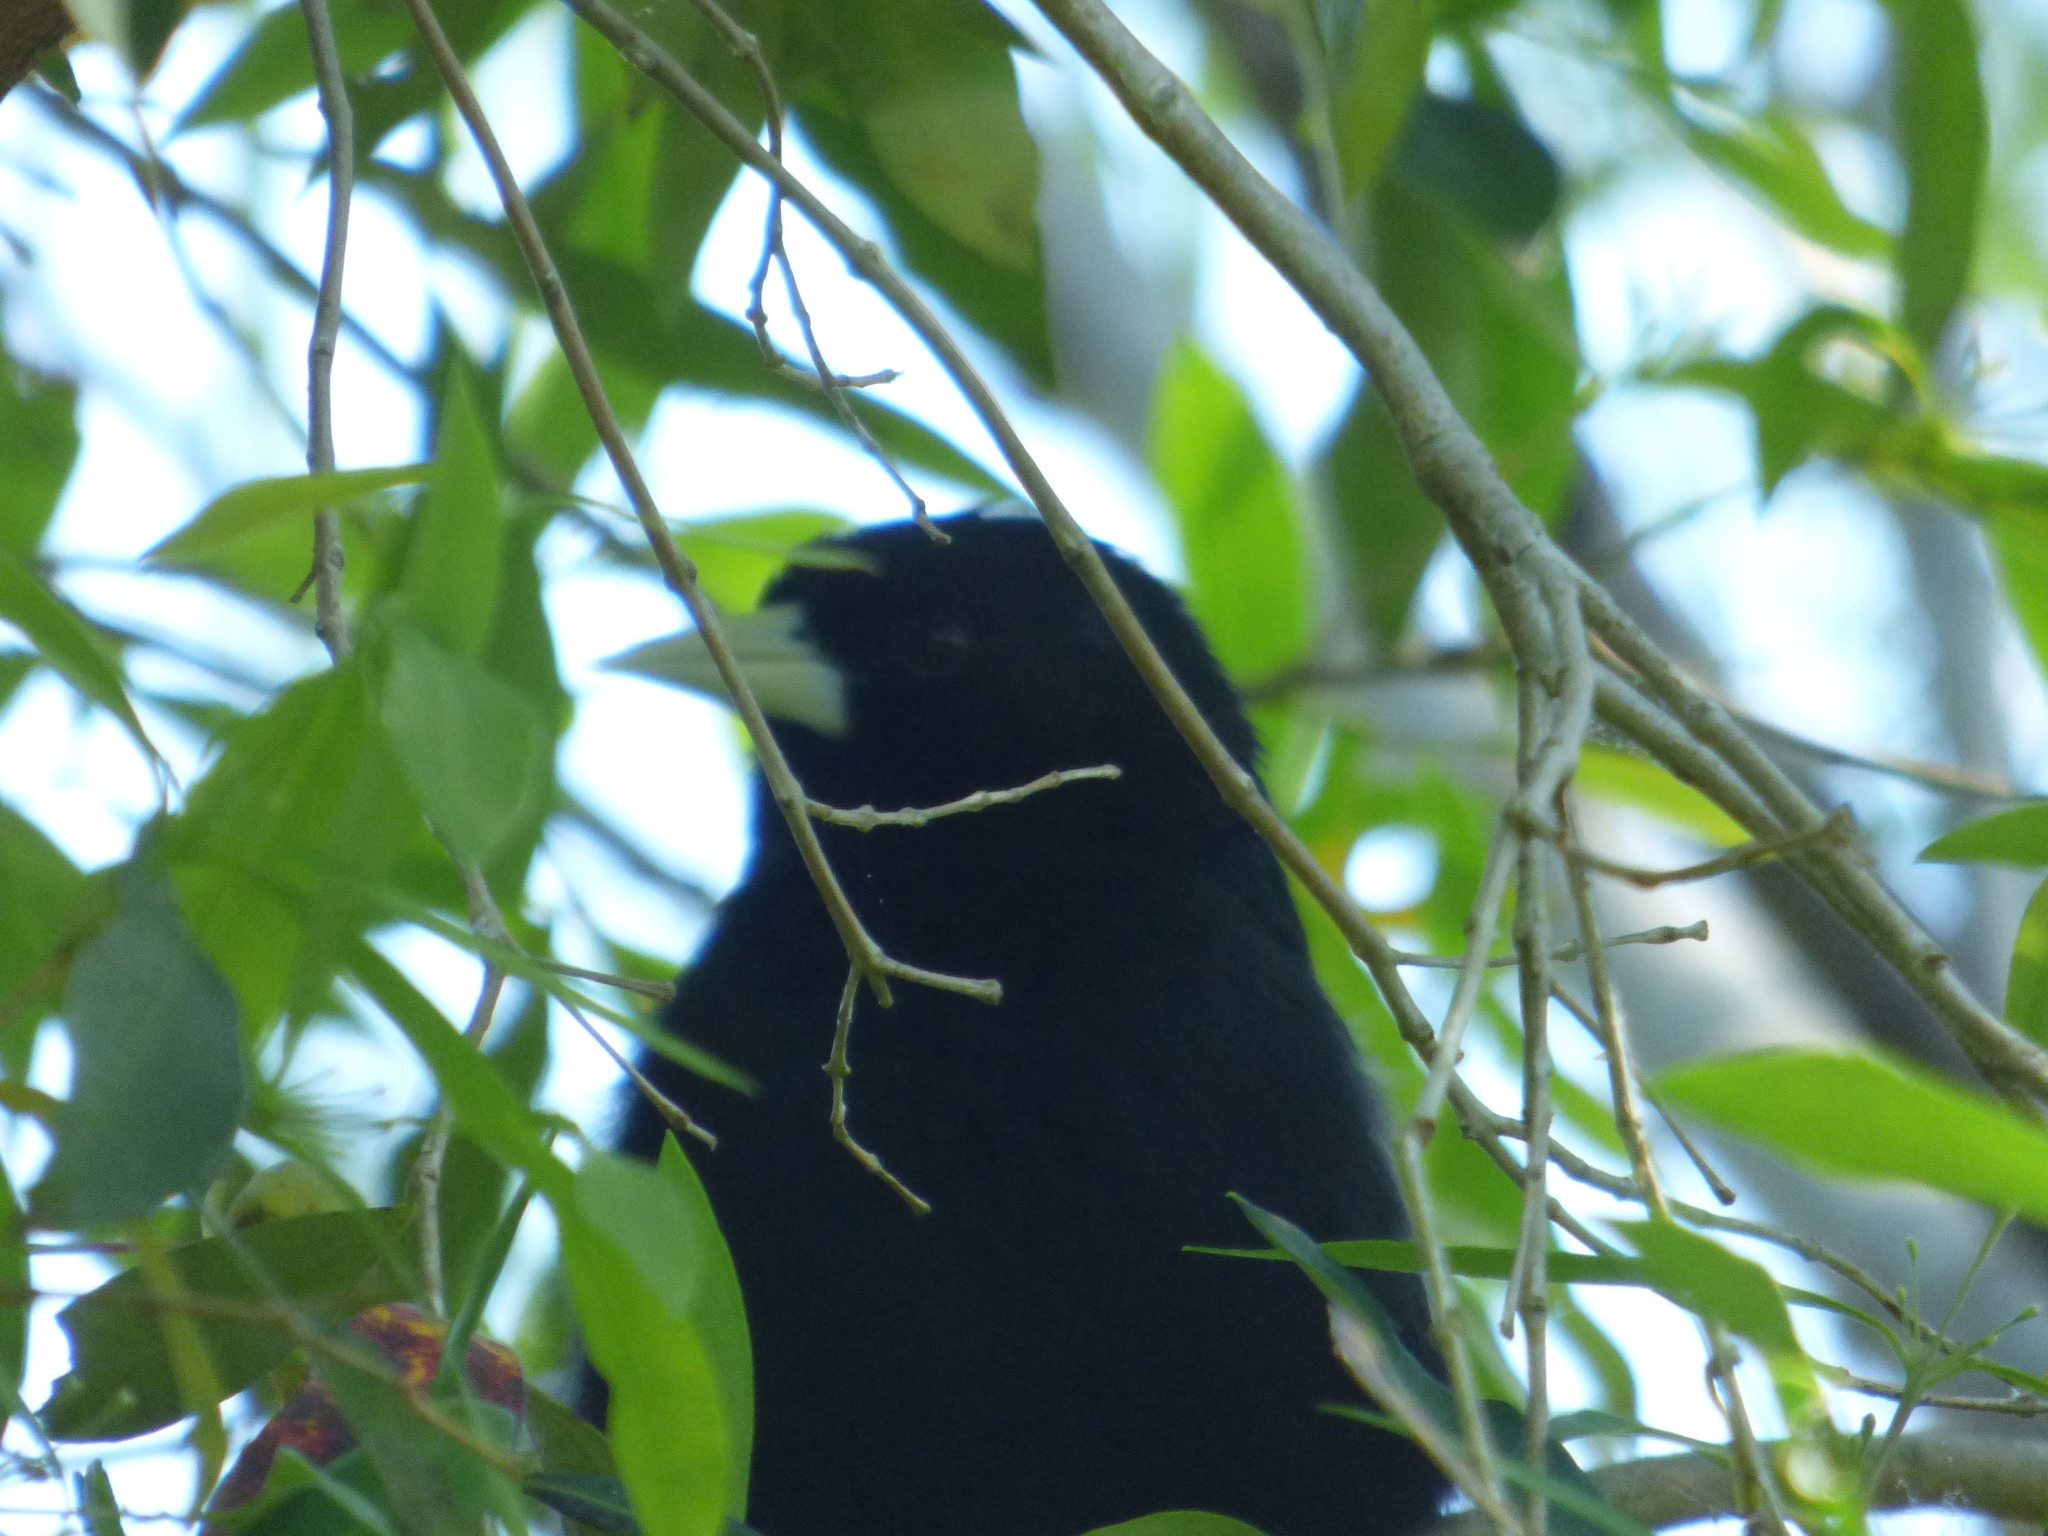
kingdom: Animalia
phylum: Chordata
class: Aves
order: Passeriformes
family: Icteridae
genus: Cacicus
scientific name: Cacicus solitarius
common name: Solitary cacique
